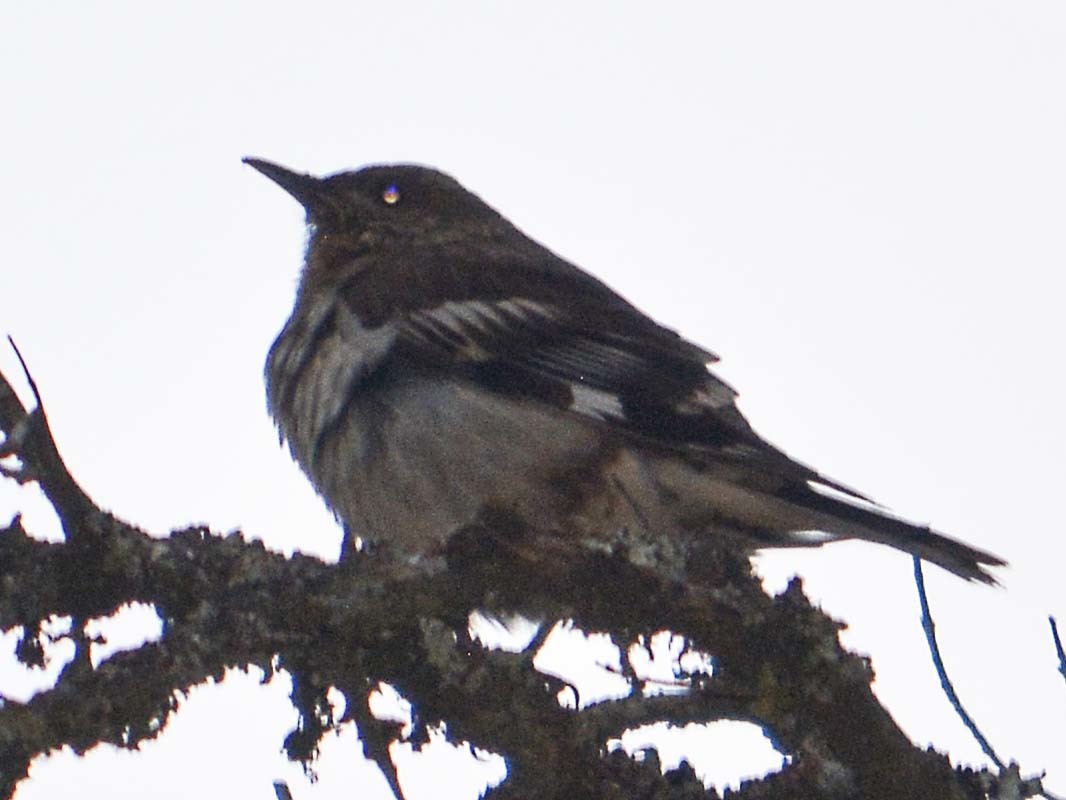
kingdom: Animalia
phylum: Chordata
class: Aves
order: Passeriformes
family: Turdidae
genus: Ridgwayia
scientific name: Ridgwayia pinicola
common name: Aztec thrush
